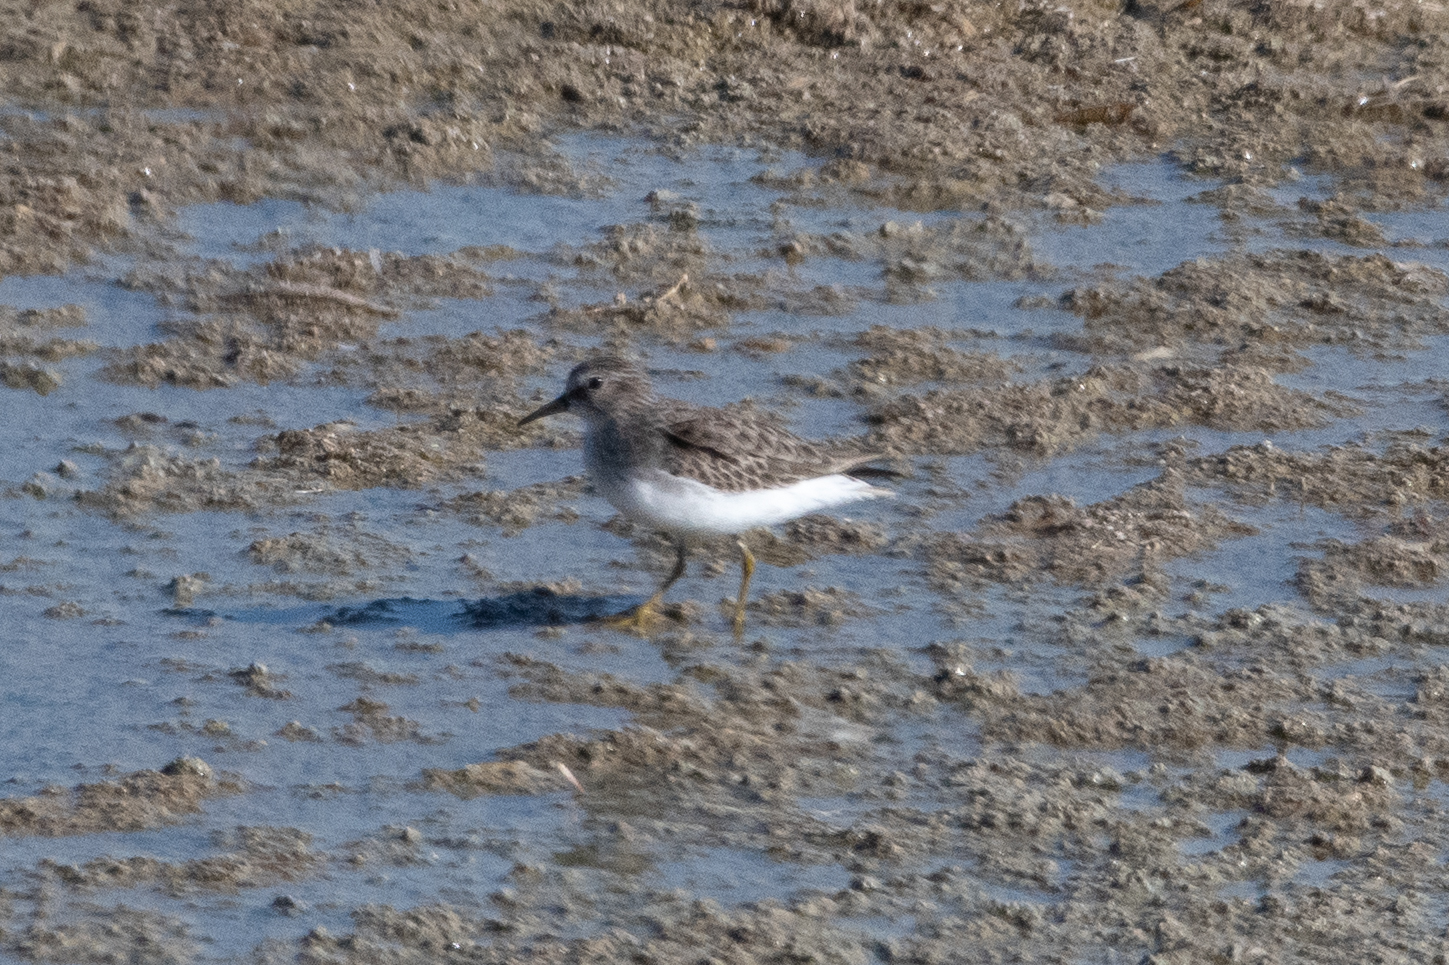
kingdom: Animalia
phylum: Chordata
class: Aves
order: Charadriiformes
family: Scolopacidae
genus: Calidris
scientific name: Calidris minutilla
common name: Least sandpiper
